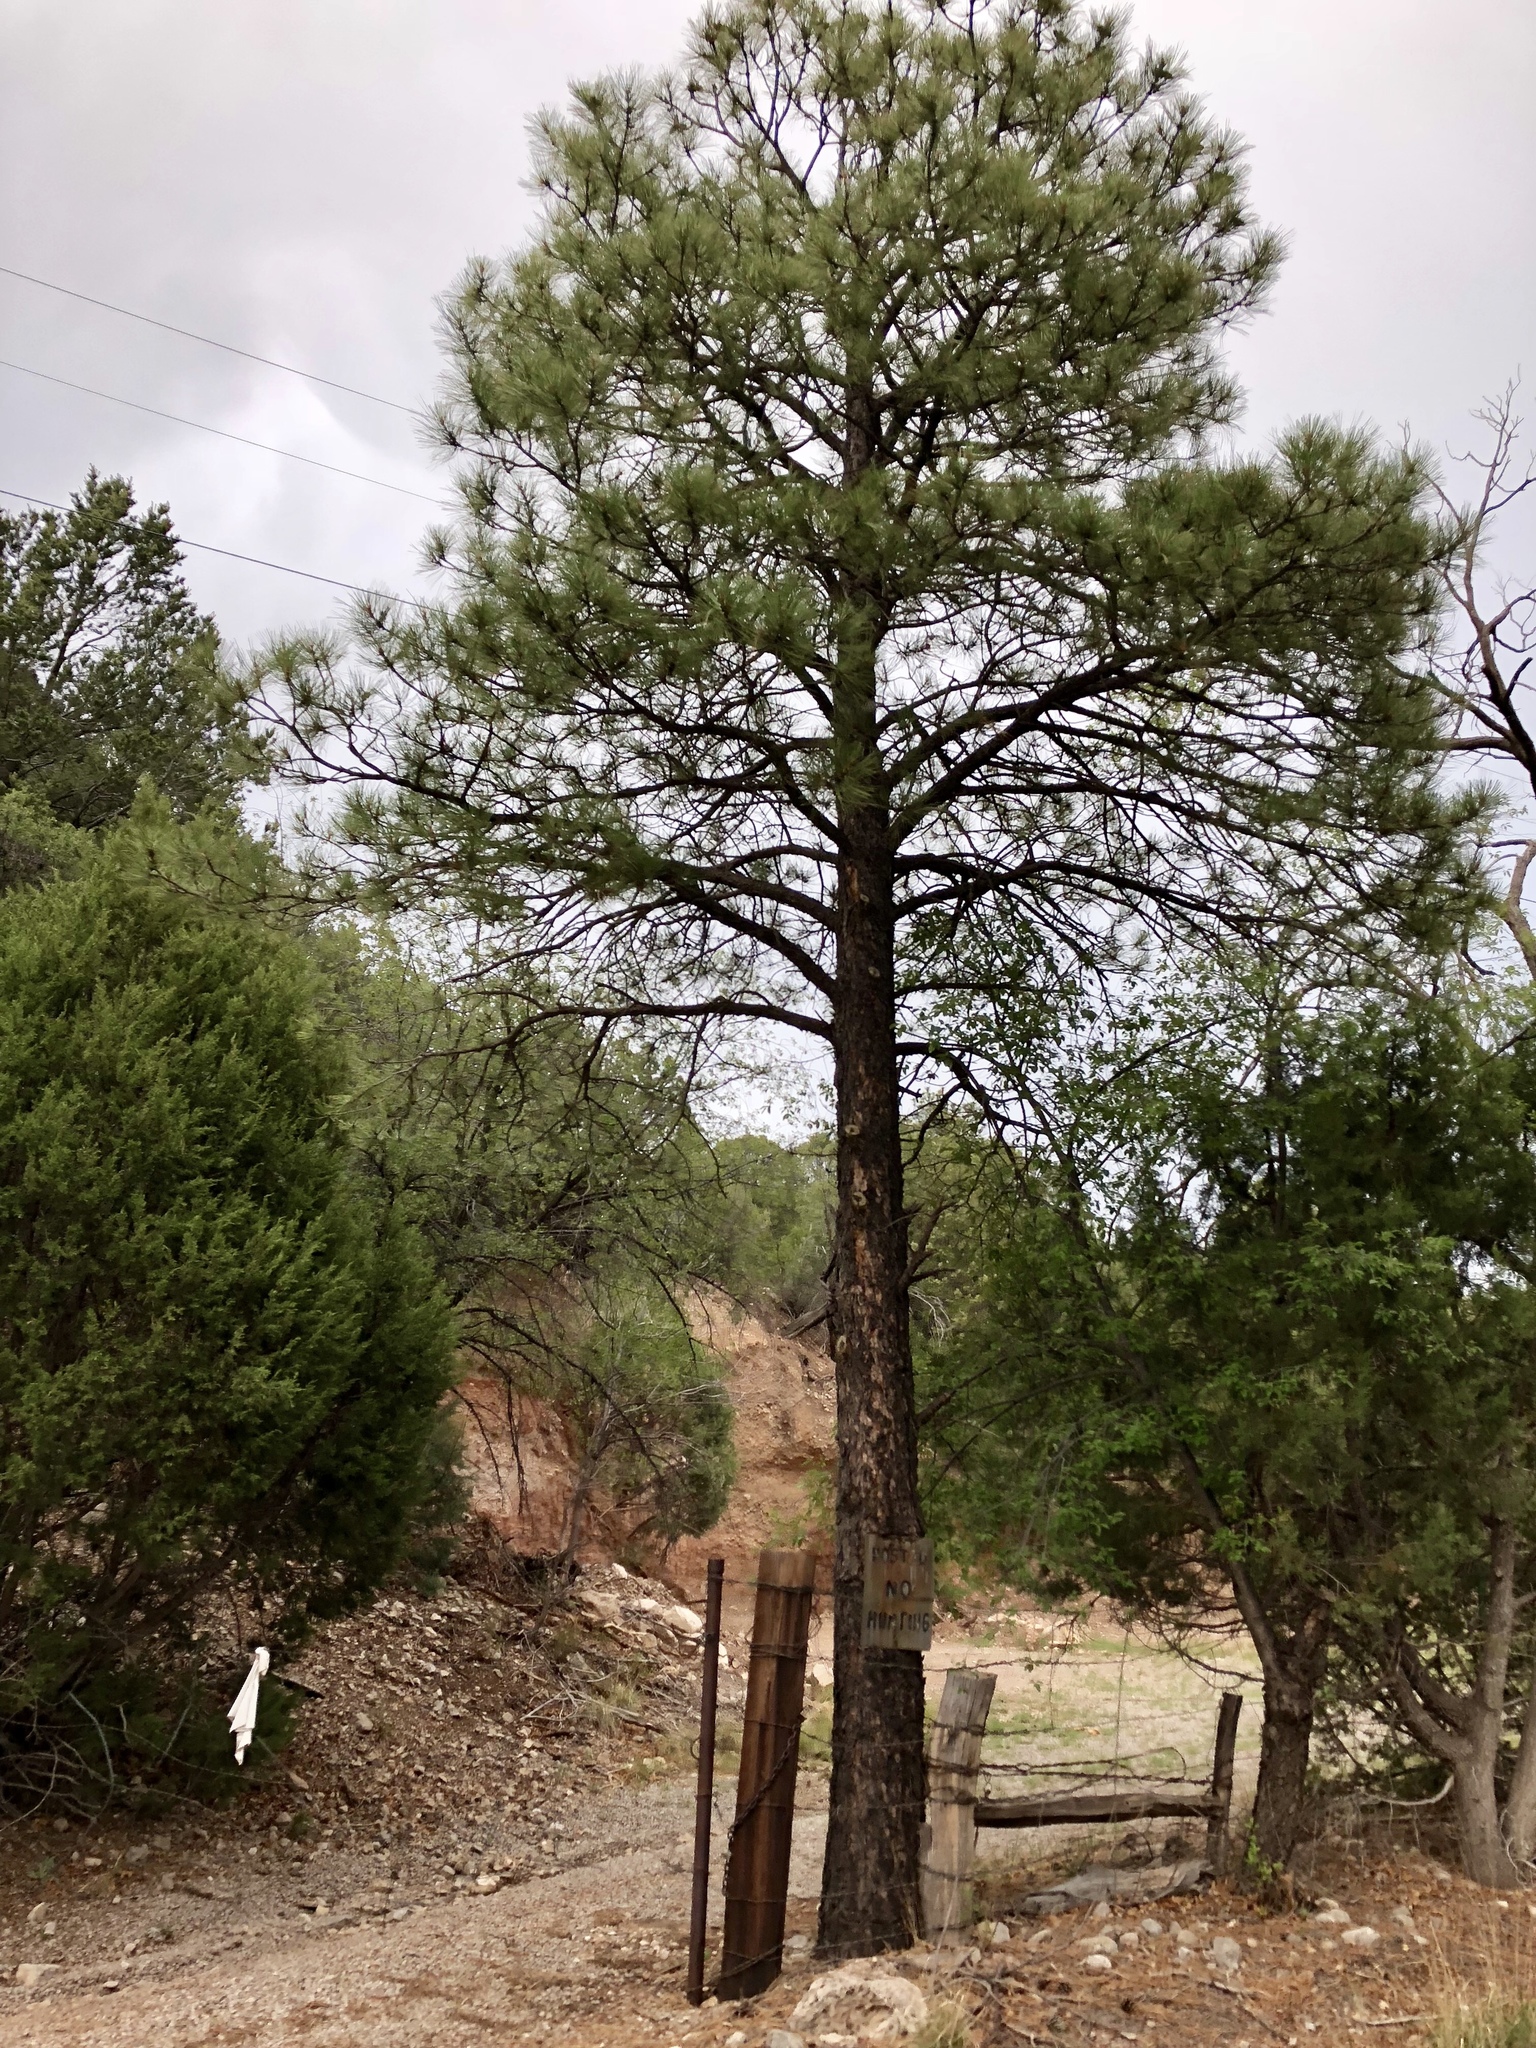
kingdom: Plantae
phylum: Tracheophyta
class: Pinopsida
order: Pinales
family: Pinaceae
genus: Pinus
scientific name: Pinus ponderosa
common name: Western yellow-pine
